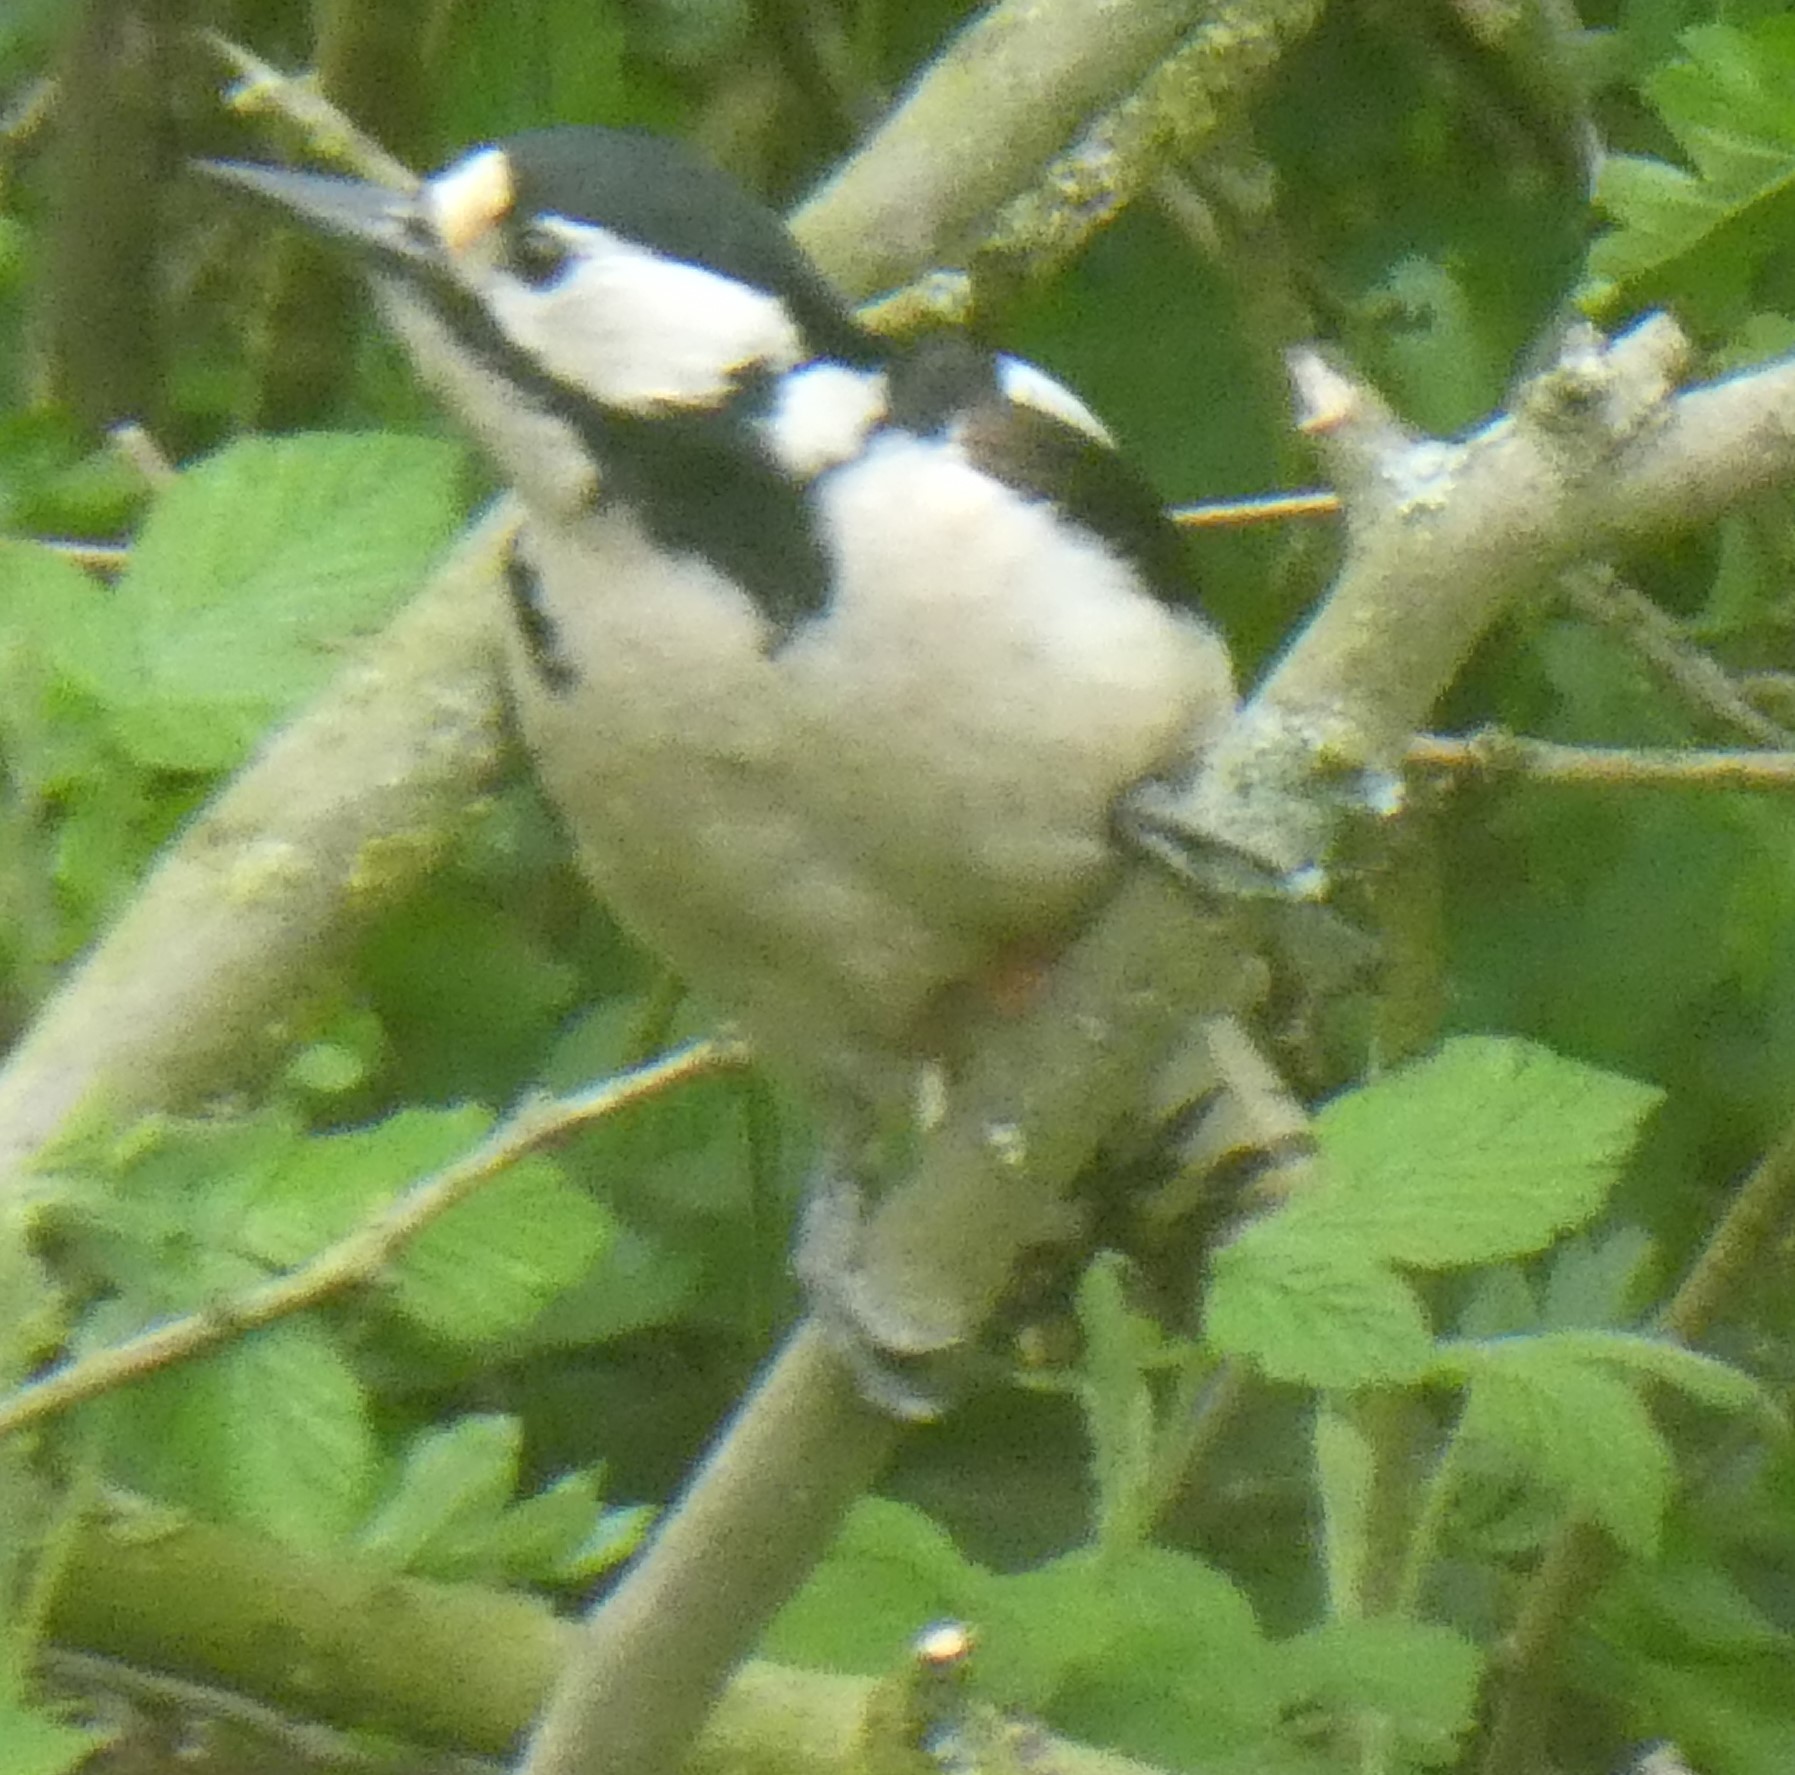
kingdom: Animalia
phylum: Chordata
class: Aves
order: Piciformes
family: Picidae
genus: Dendrocopos
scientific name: Dendrocopos major
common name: Great spotted woodpecker
